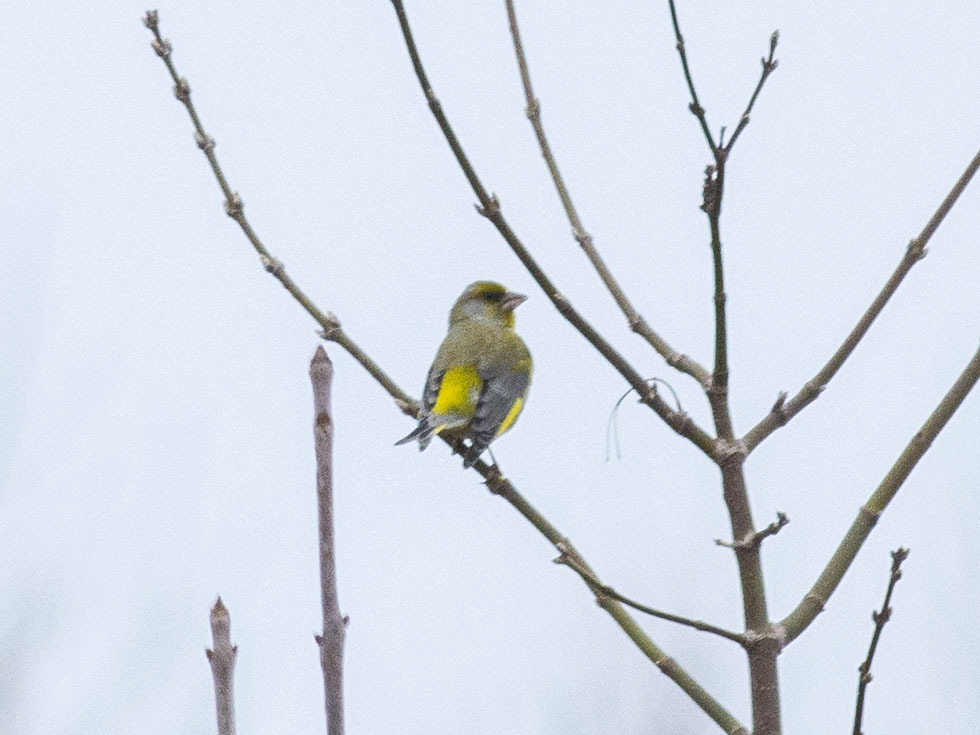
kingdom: Plantae
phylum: Tracheophyta
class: Liliopsida
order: Poales
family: Poaceae
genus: Chloris
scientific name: Chloris chloris
